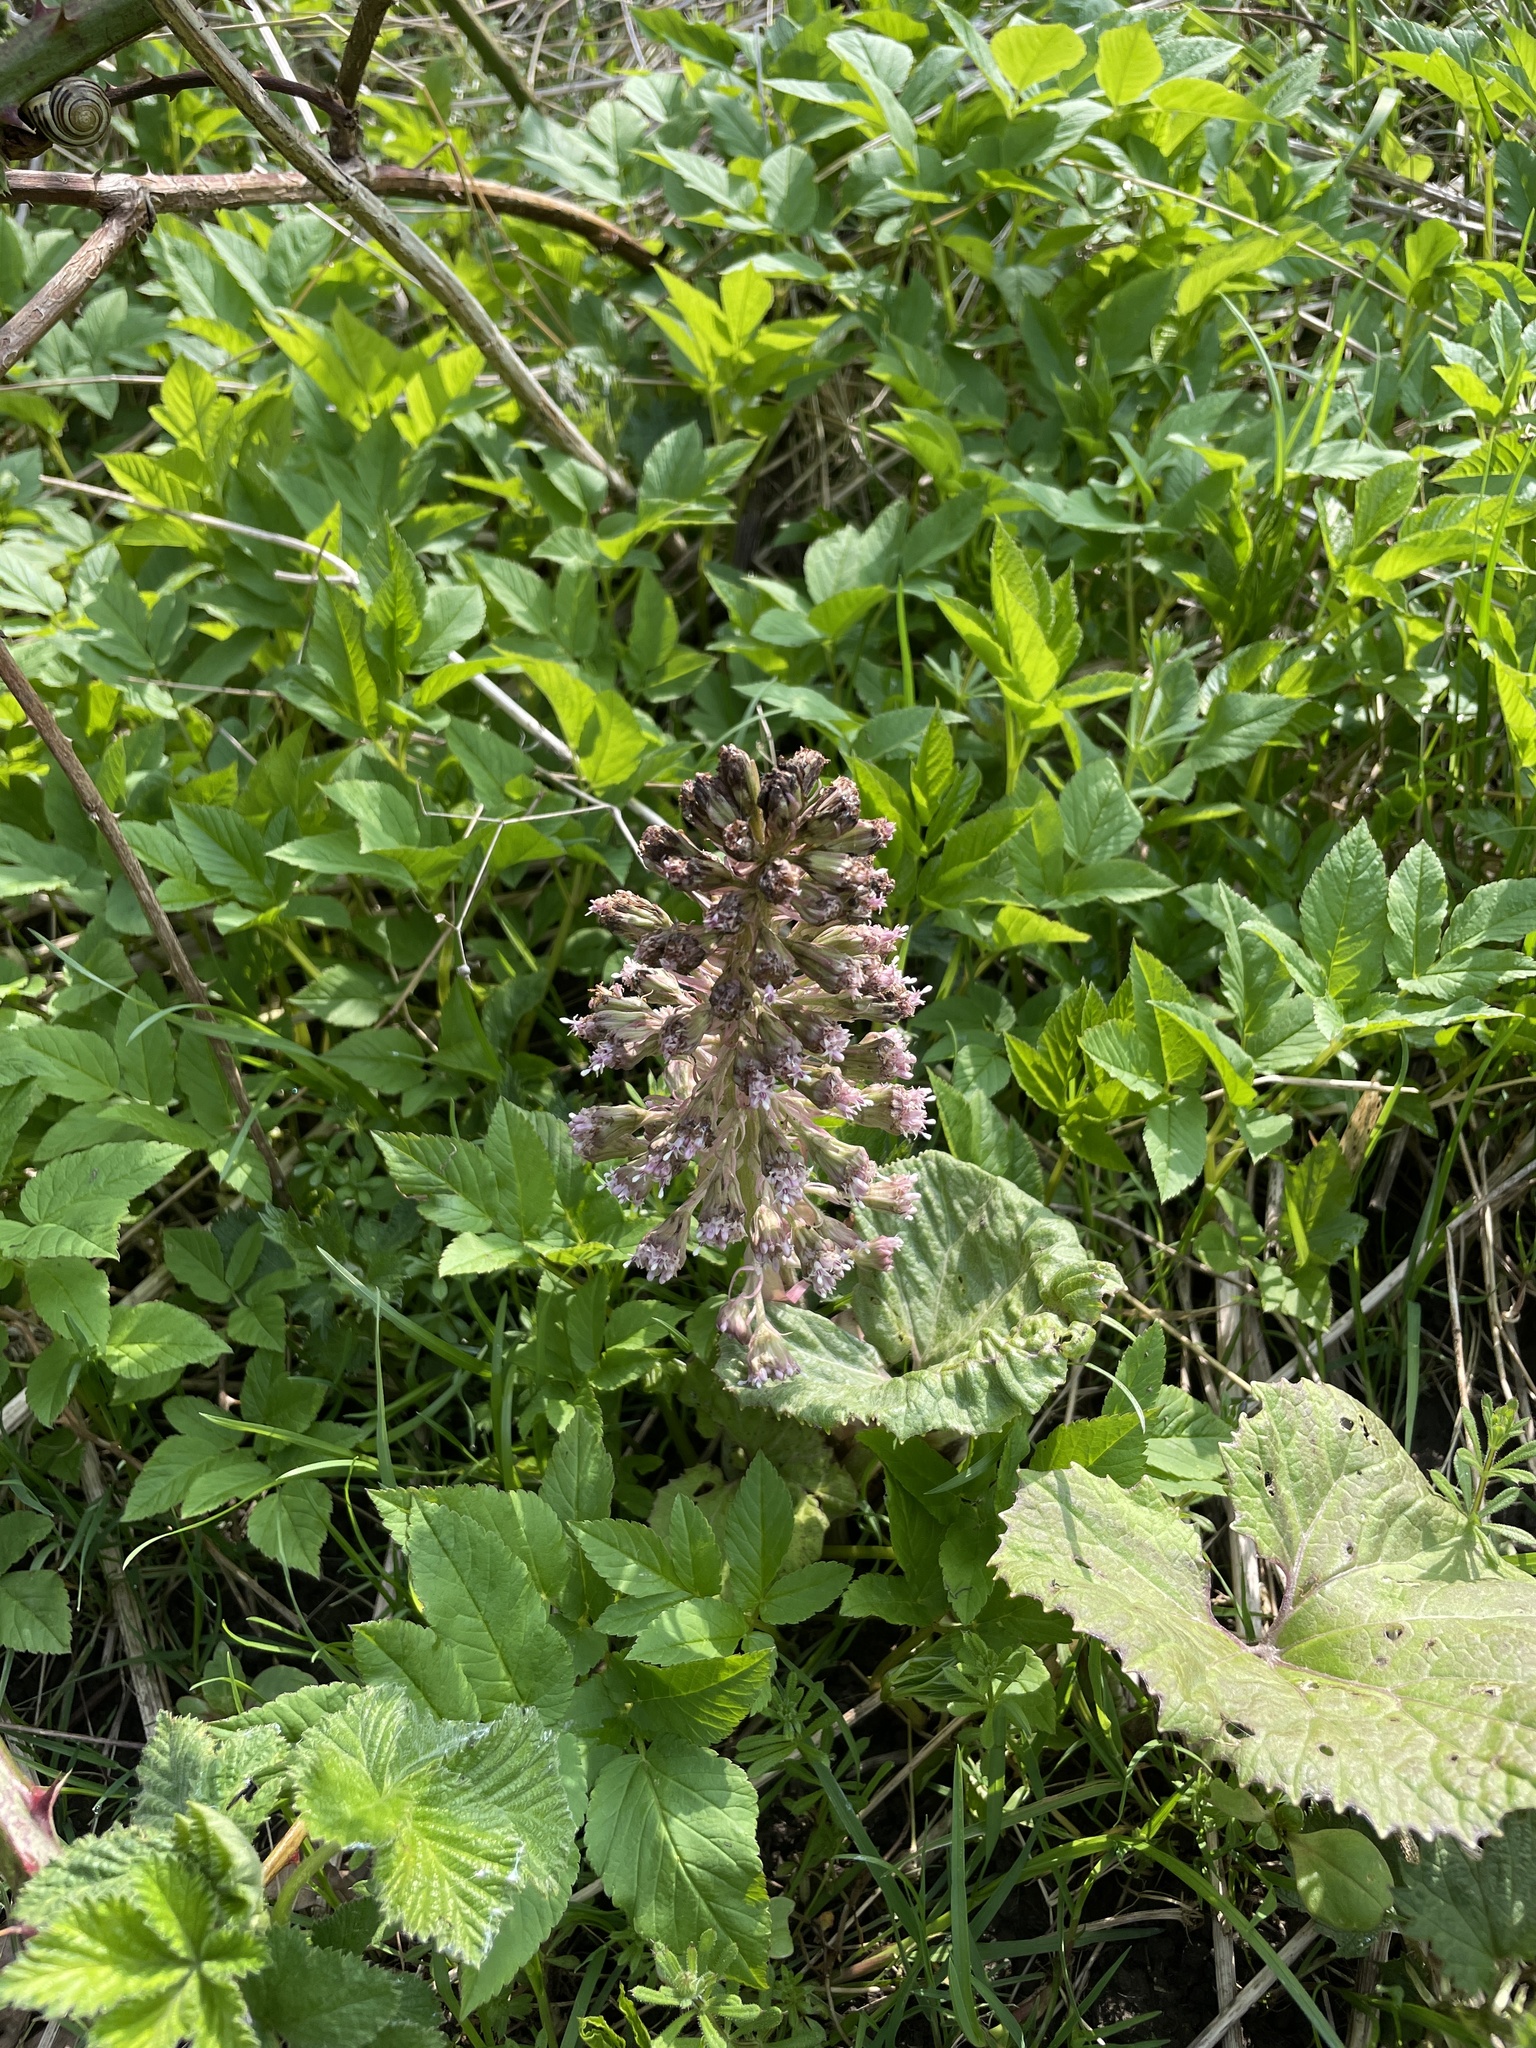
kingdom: Plantae
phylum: Tracheophyta
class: Magnoliopsida
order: Asterales
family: Asteraceae
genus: Petasites
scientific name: Petasites hybridus
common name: Butterbur
